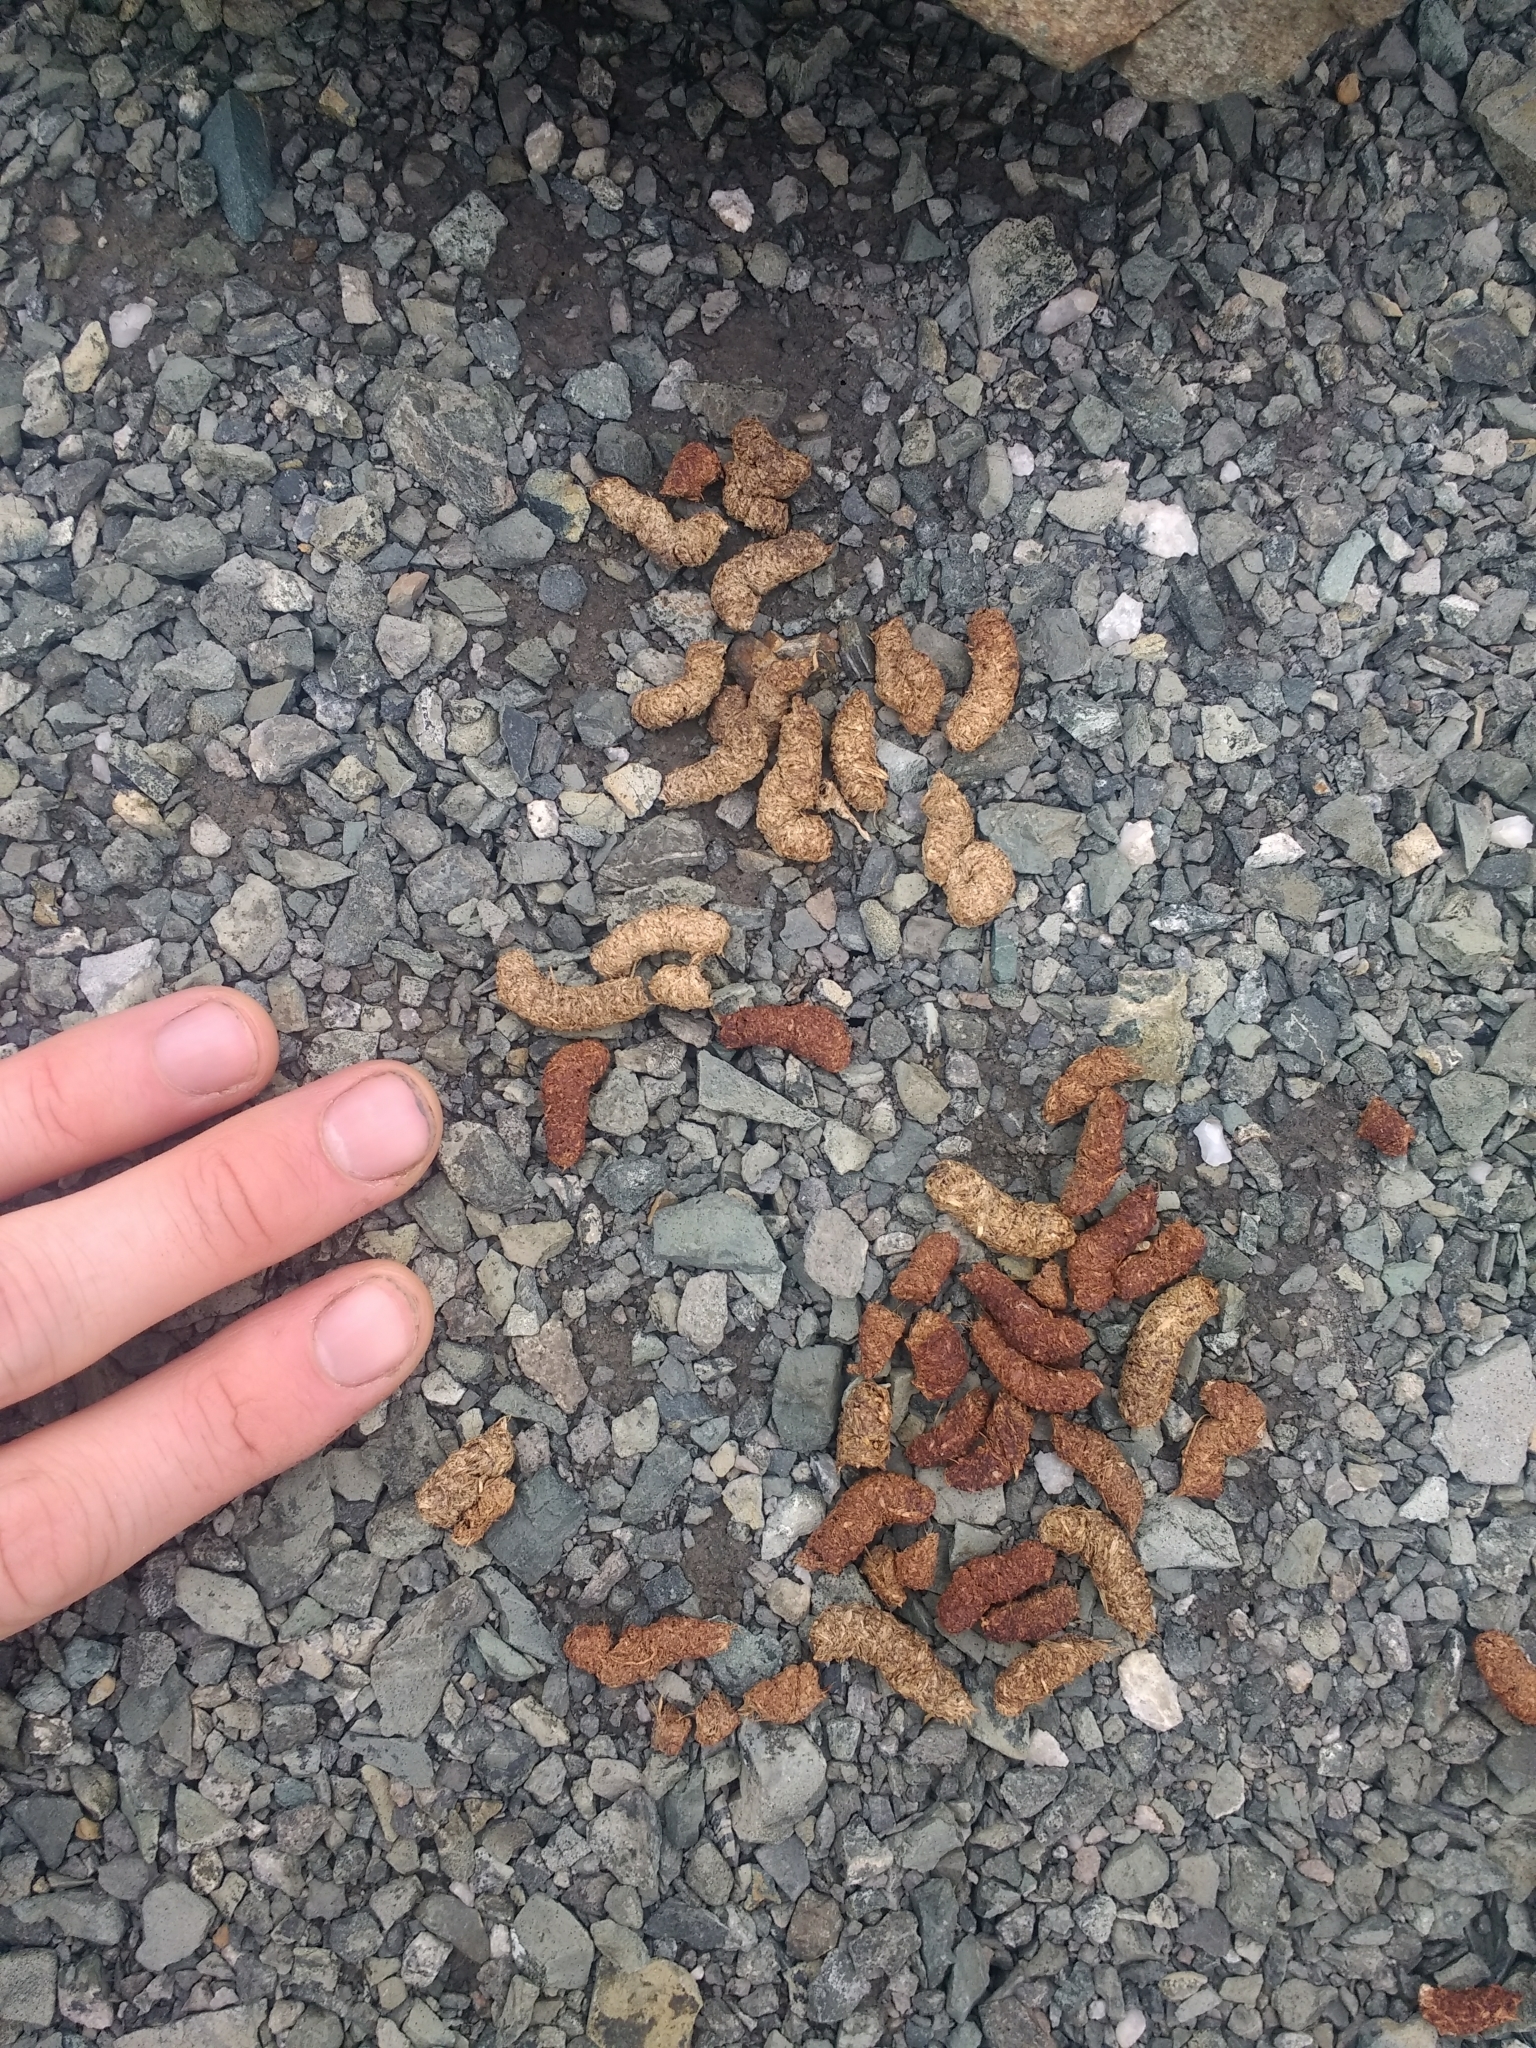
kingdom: Animalia
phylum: Chordata
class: Aves
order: Galliformes
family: Phasianidae
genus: Lagopus
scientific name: Lagopus leucura
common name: White-tailed ptarmigan
